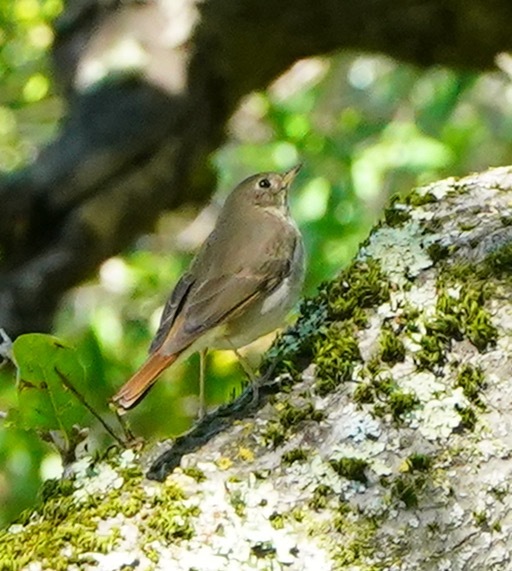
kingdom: Animalia
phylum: Chordata
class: Aves
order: Passeriformes
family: Turdidae
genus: Catharus
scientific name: Catharus guttatus
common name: Hermit thrush
